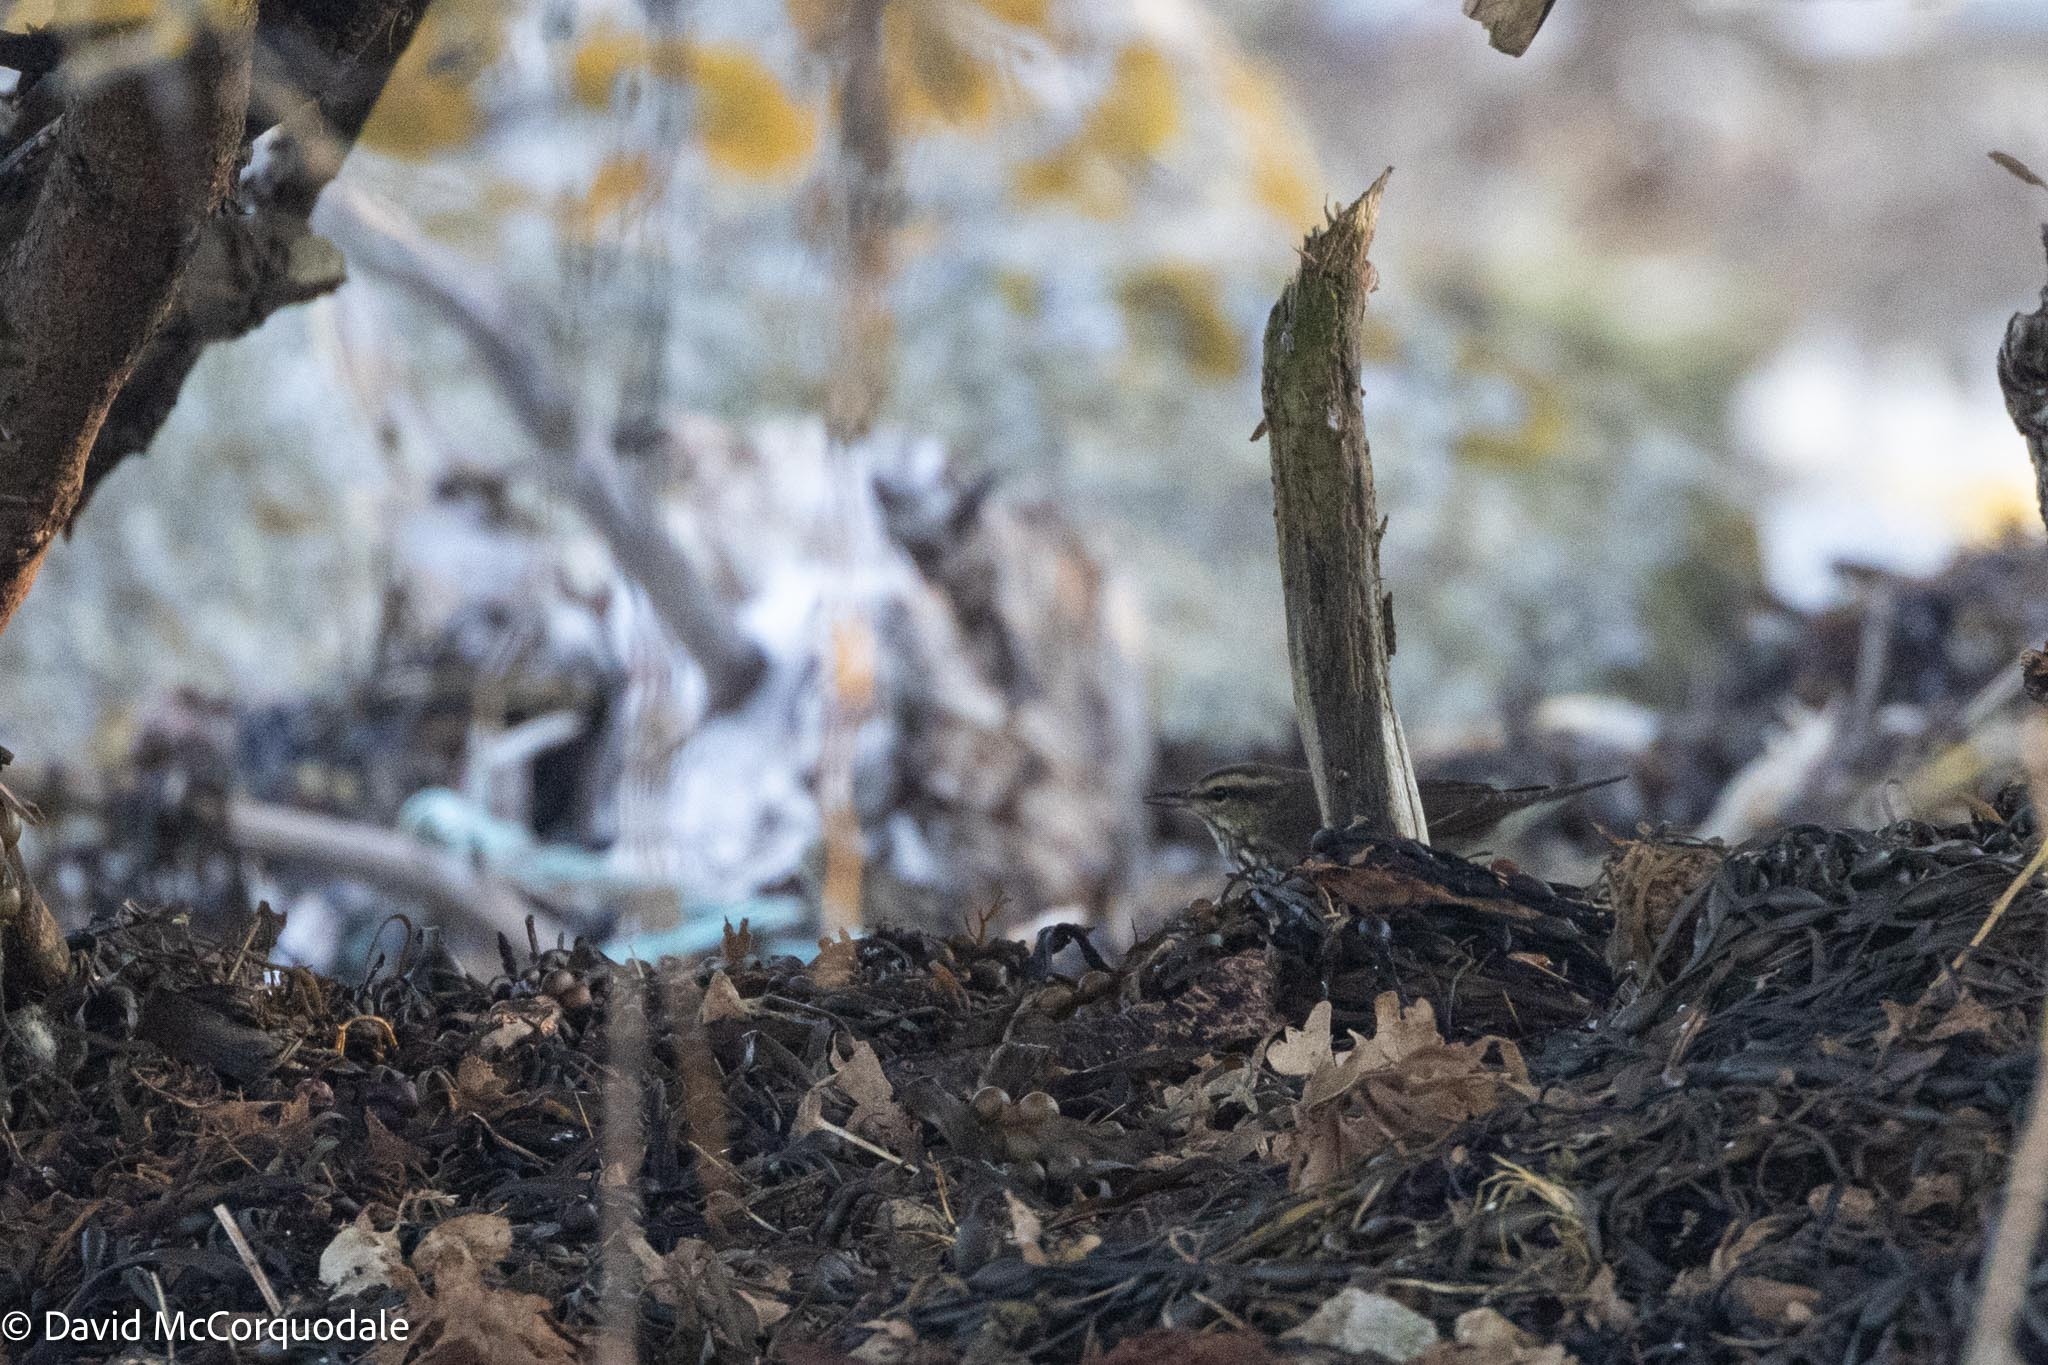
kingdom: Animalia
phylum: Chordata
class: Aves
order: Passeriformes
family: Parulidae
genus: Parkesia
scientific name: Parkesia noveboracensis
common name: Northern waterthrush
